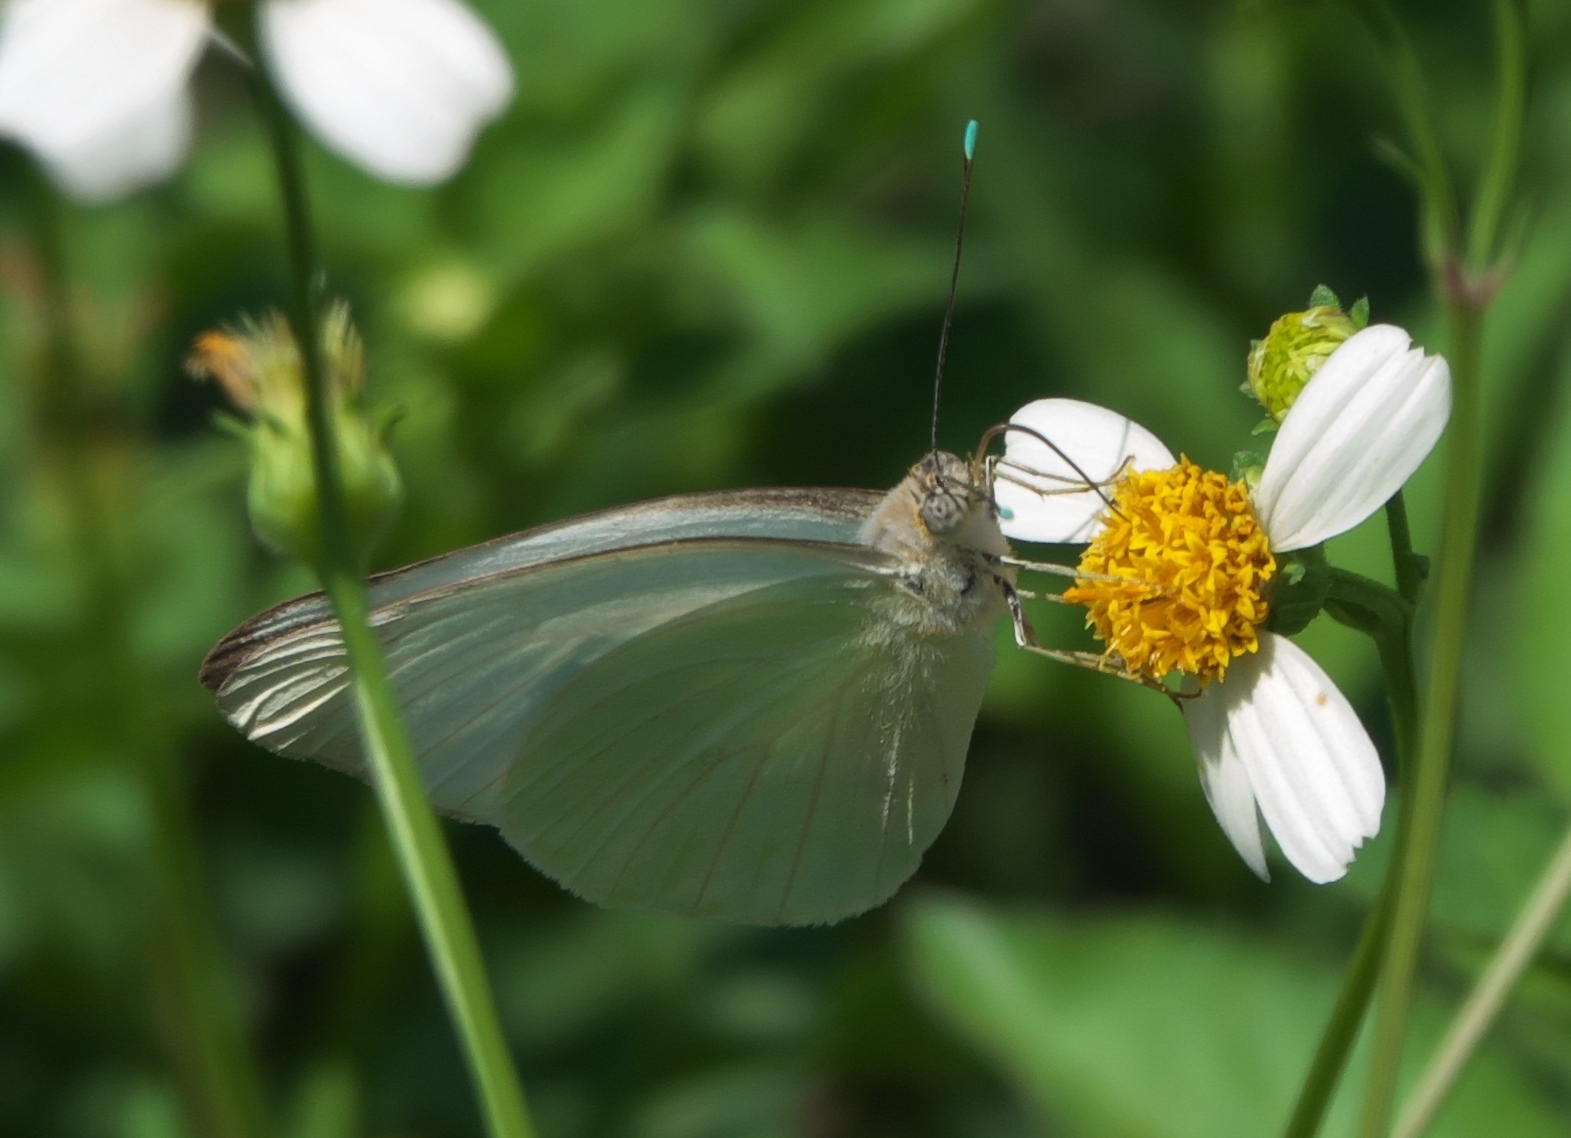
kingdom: Animalia
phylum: Arthropoda
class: Insecta
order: Lepidoptera
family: Pieridae
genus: Ascia
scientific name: Ascia monuste
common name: Great southern white
